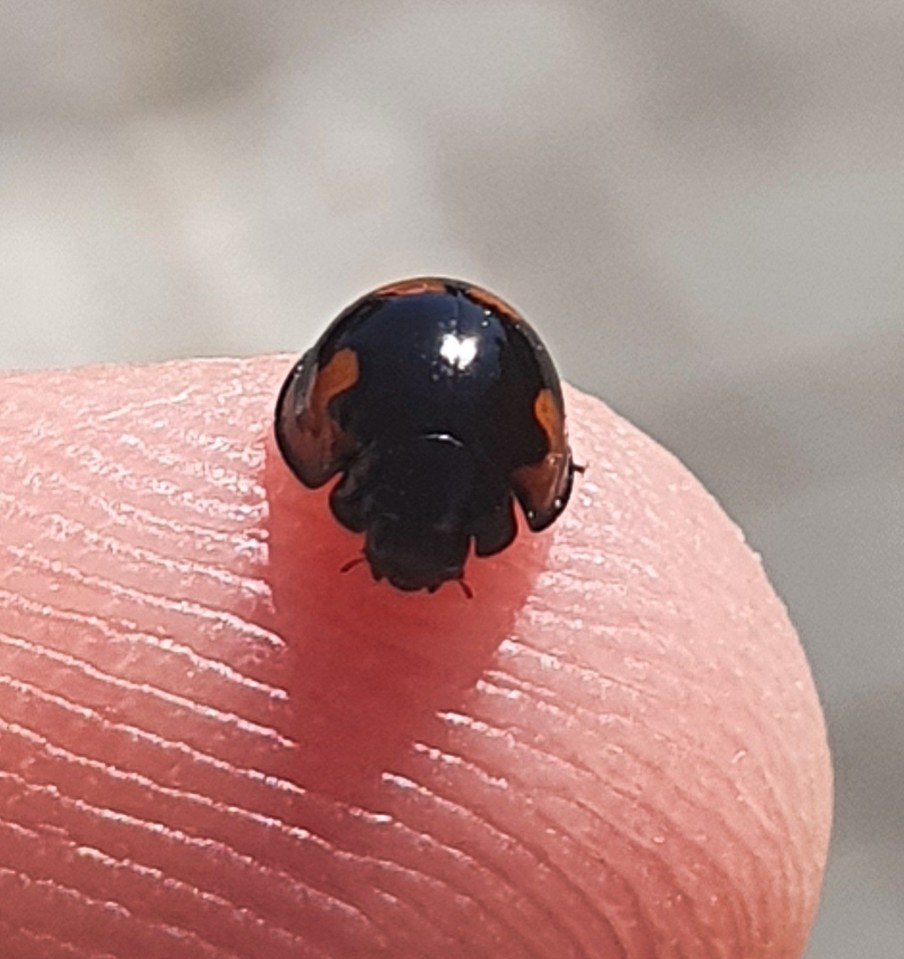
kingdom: Animalia
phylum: Arthropoda
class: Insecta
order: Coleoptera
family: Coccinellidae
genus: Brumus
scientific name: Brumus quadripustulatus
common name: Ladybird beetle
